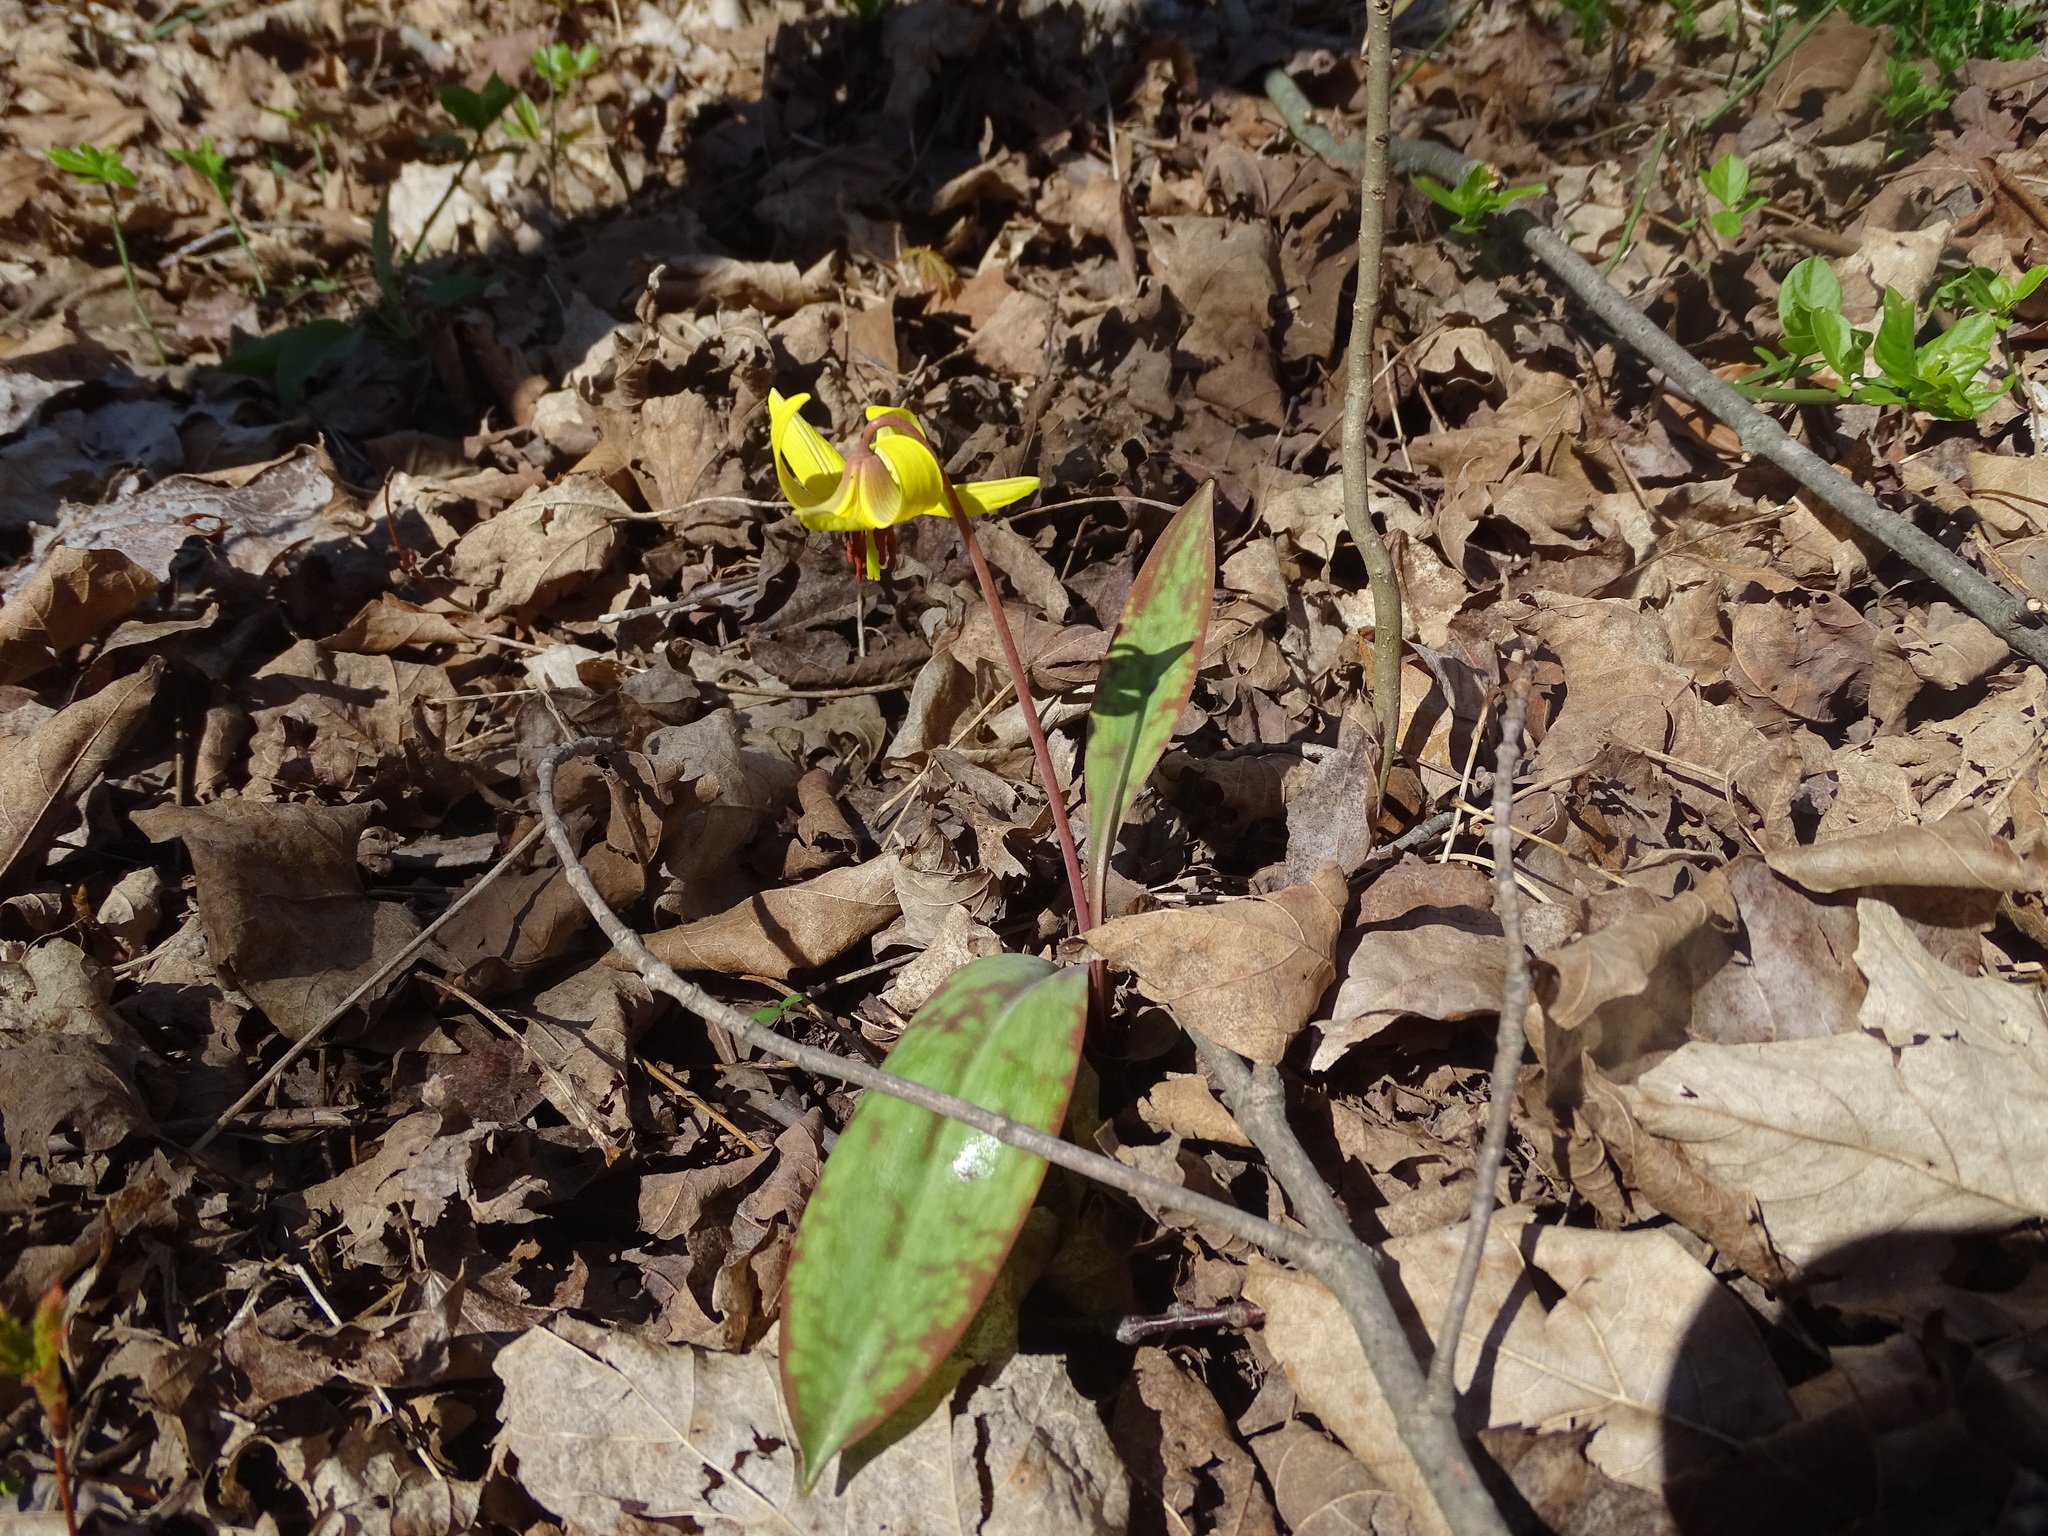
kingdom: Plantae
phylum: Tracheophyta
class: Liliopsida
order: Liliales
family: Liliaceae
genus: Erythronium
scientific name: Erythronium americanum
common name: Yellow adder's-tongue
